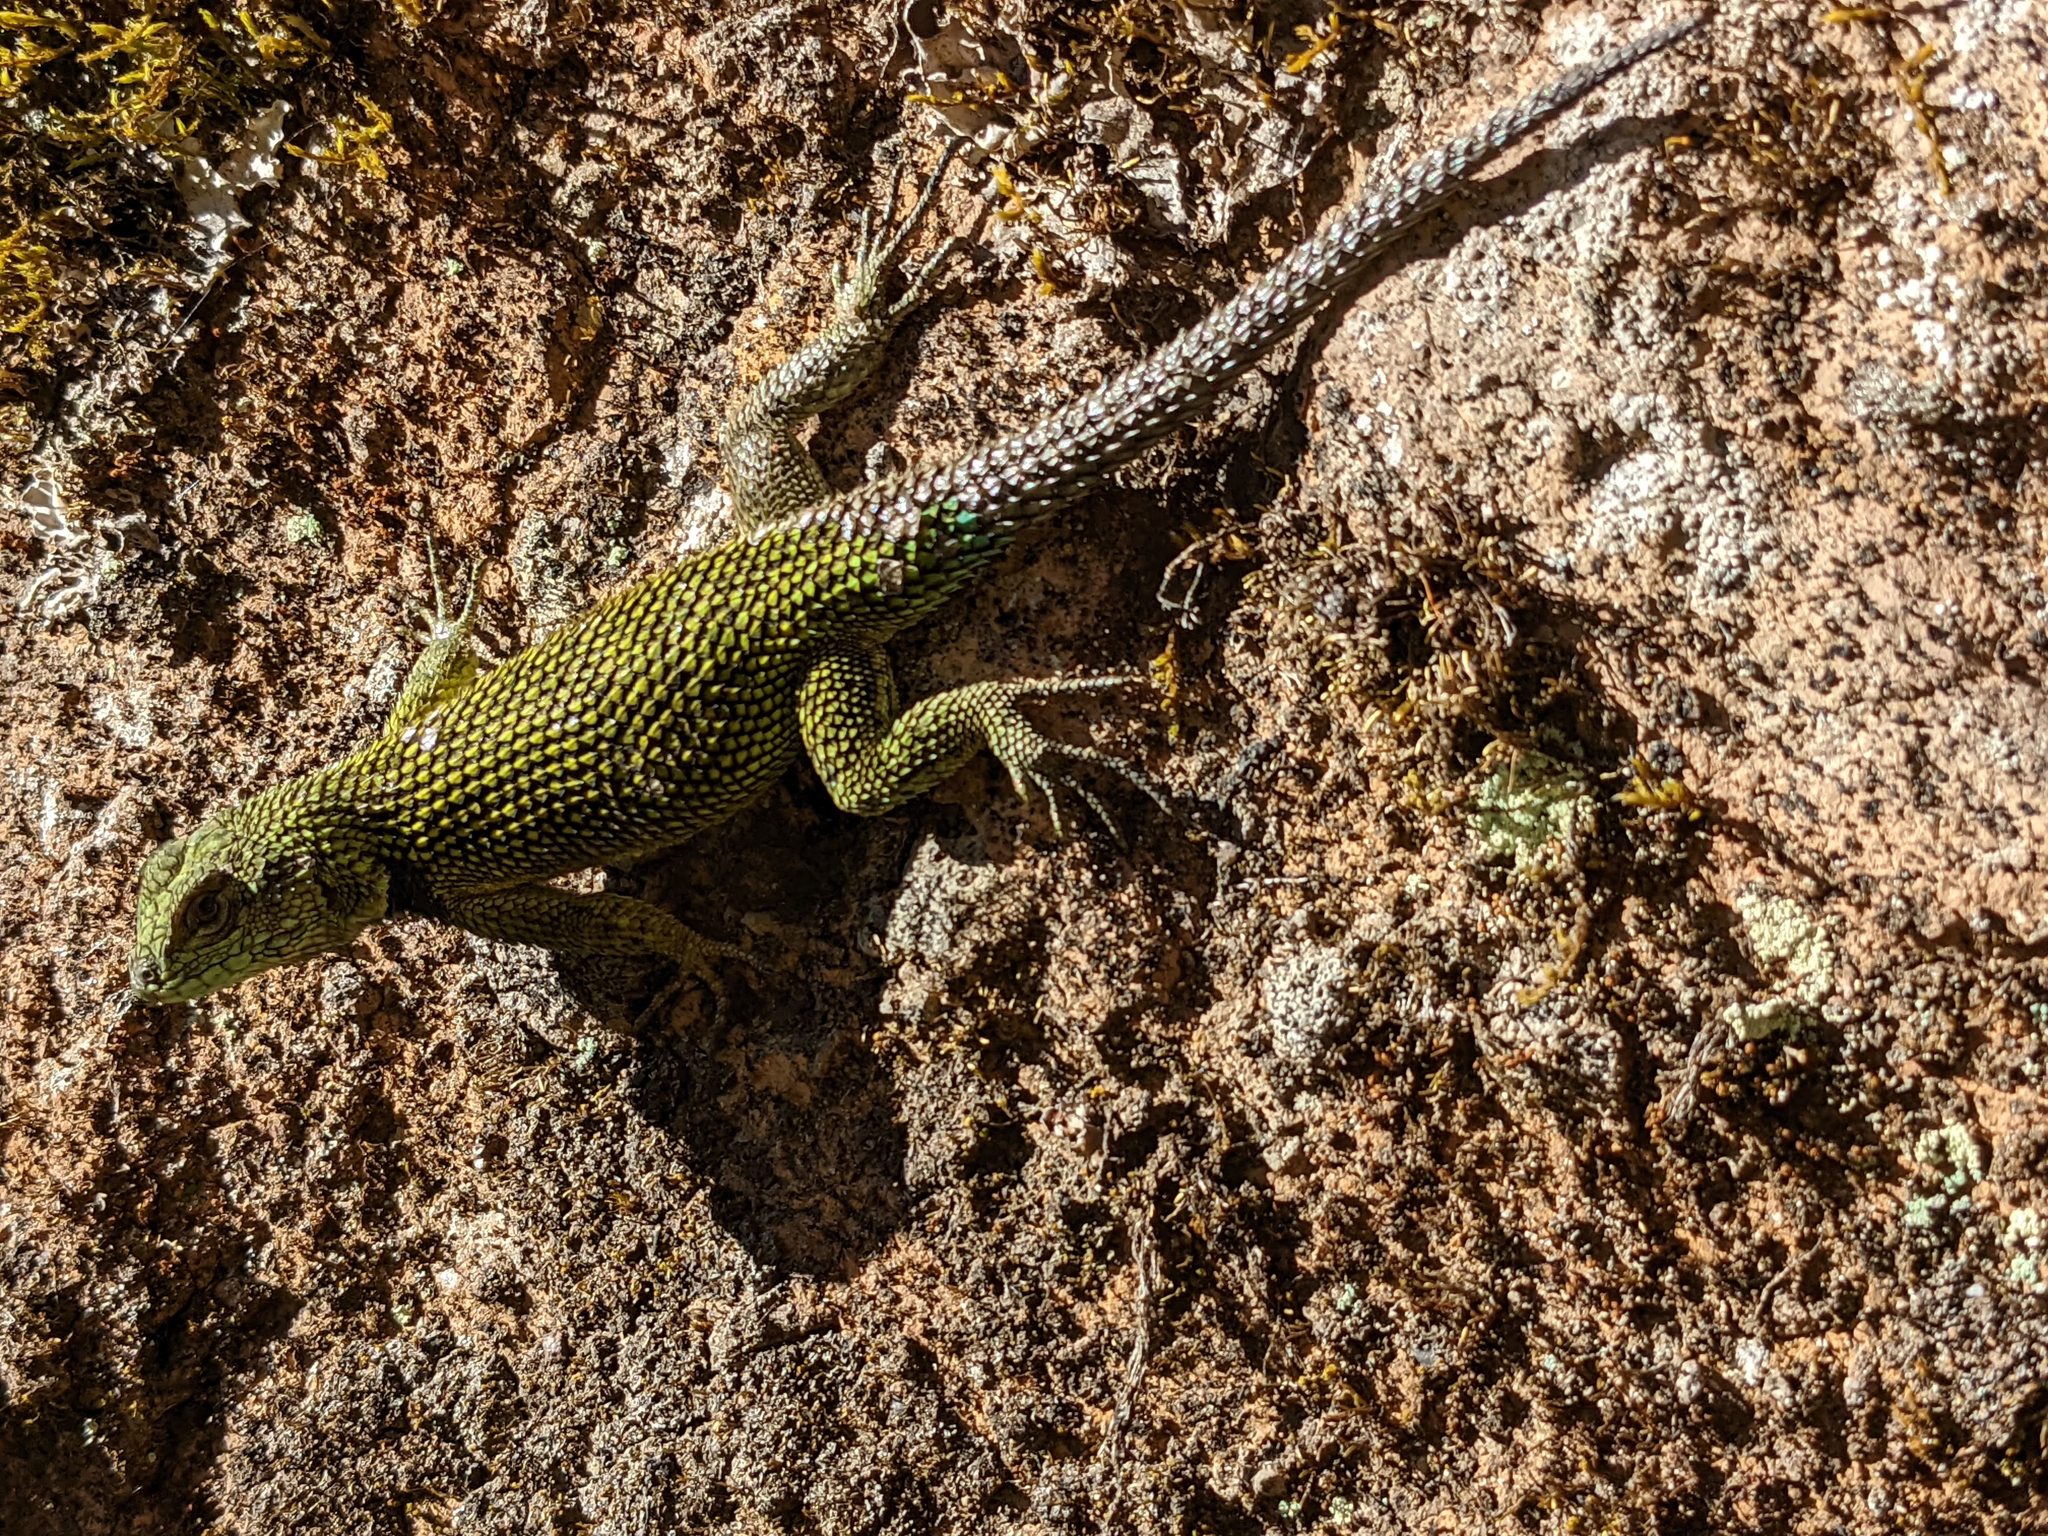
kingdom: Animalia
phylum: Chordata
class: Squamata
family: Phrynosomatidae
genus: Sceloporus
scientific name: Sceloporus malachiticus
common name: Green spiny lizard
